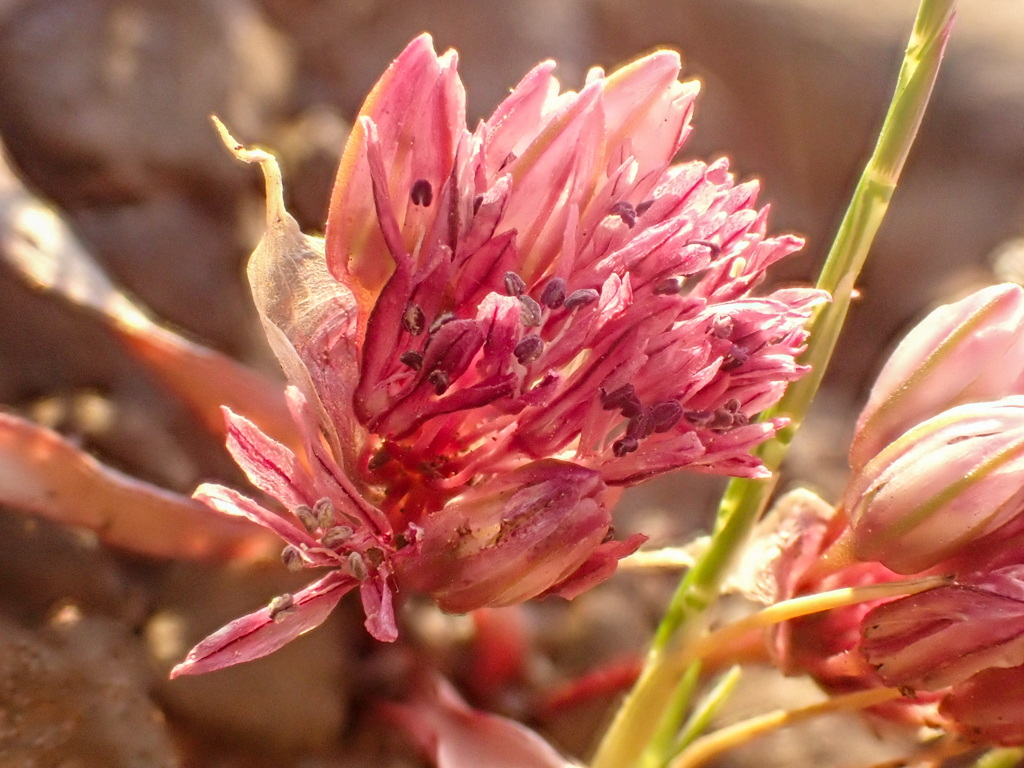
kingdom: Plantae
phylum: Tracheophyta
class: Liliopsida
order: Asparagales
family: Amaryllidaceae
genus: Allium
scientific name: Allium cratericola
